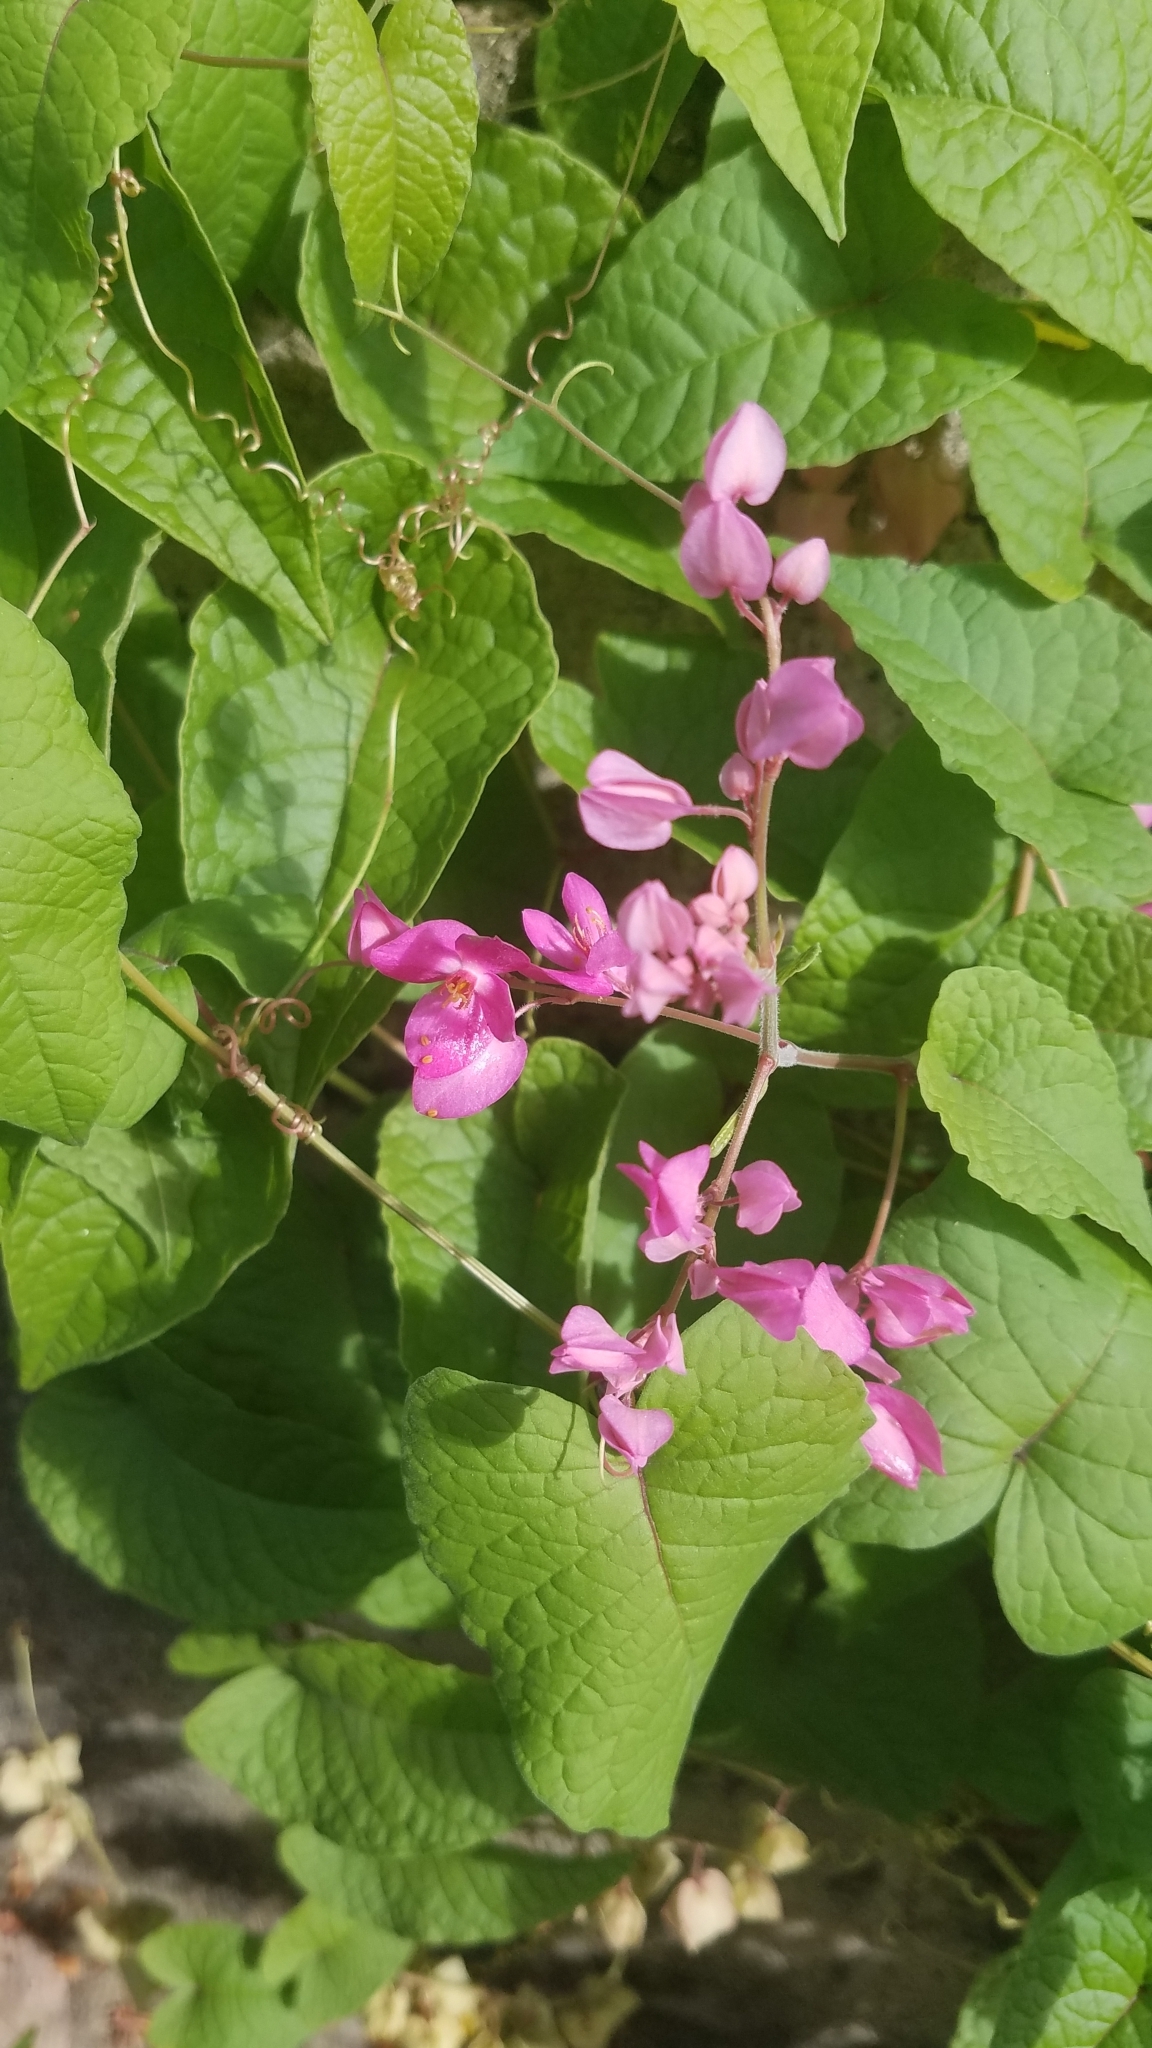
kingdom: Plantae
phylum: Tracheophyta
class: Magnoliopsida
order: Caryophyllales
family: Polygonaceae
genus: Antigonon
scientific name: Antigonon leptopus
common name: Coral vine
